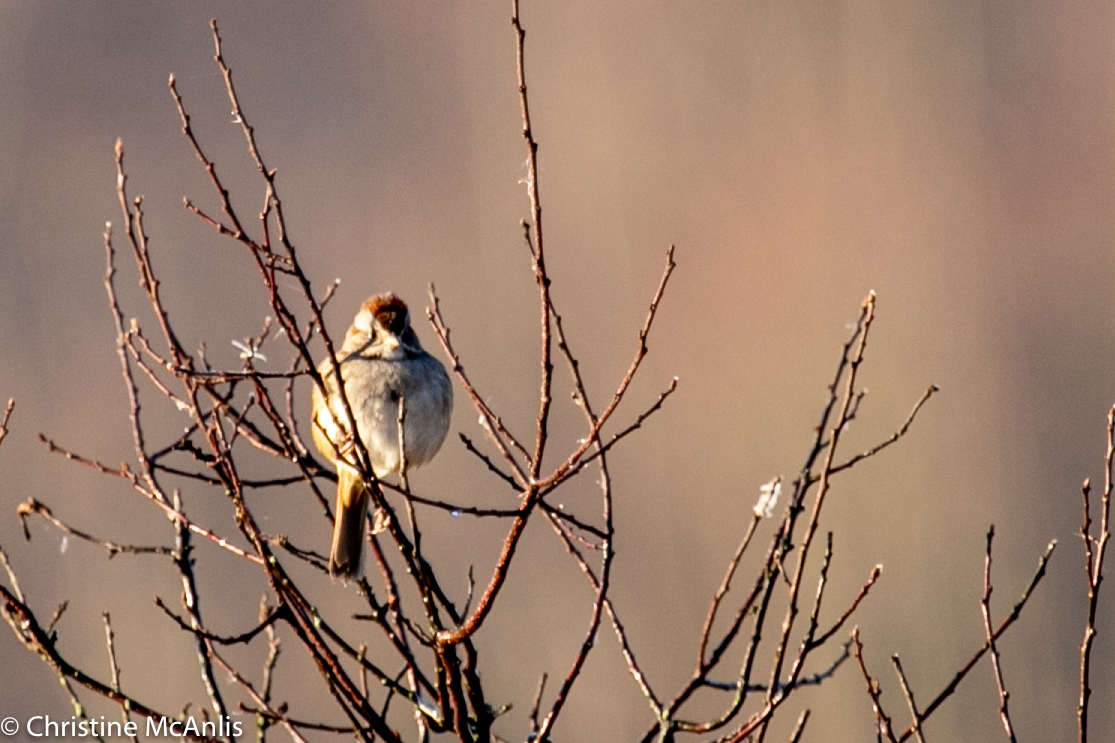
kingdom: Animalia
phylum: Chordata
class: Aves
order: Passeriformes
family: Passerellidae
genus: Spizelloides
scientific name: Spizelloides arborea
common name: American tree sparrow
